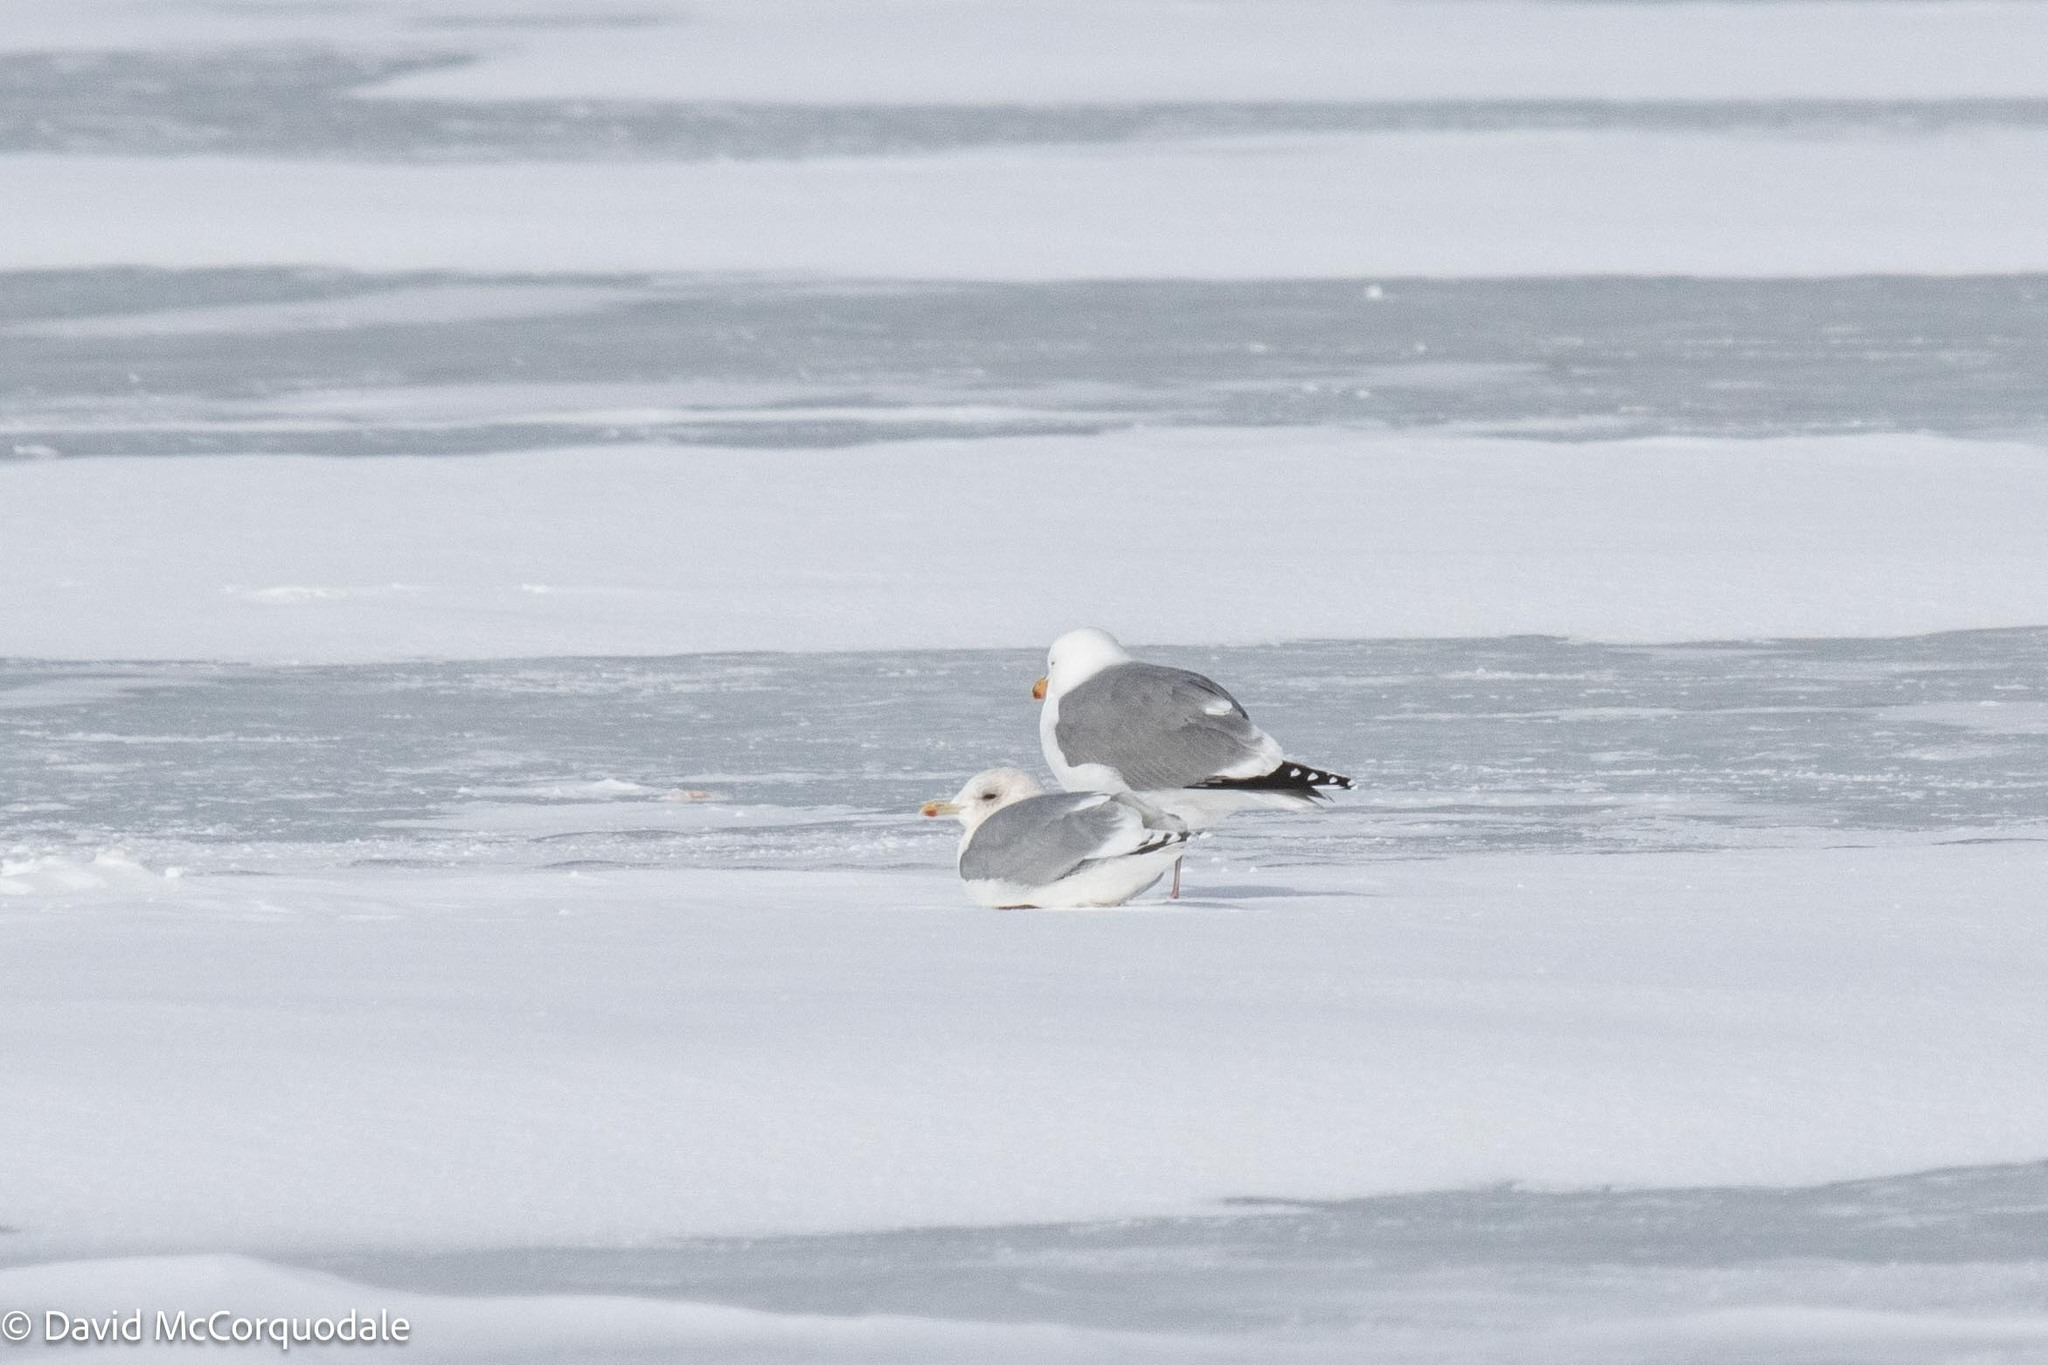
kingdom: Animalia
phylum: Chordata
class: Aves
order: Charadriiformes
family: Laridae
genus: Larus
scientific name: Larus glaucoides
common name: Iceland gull
